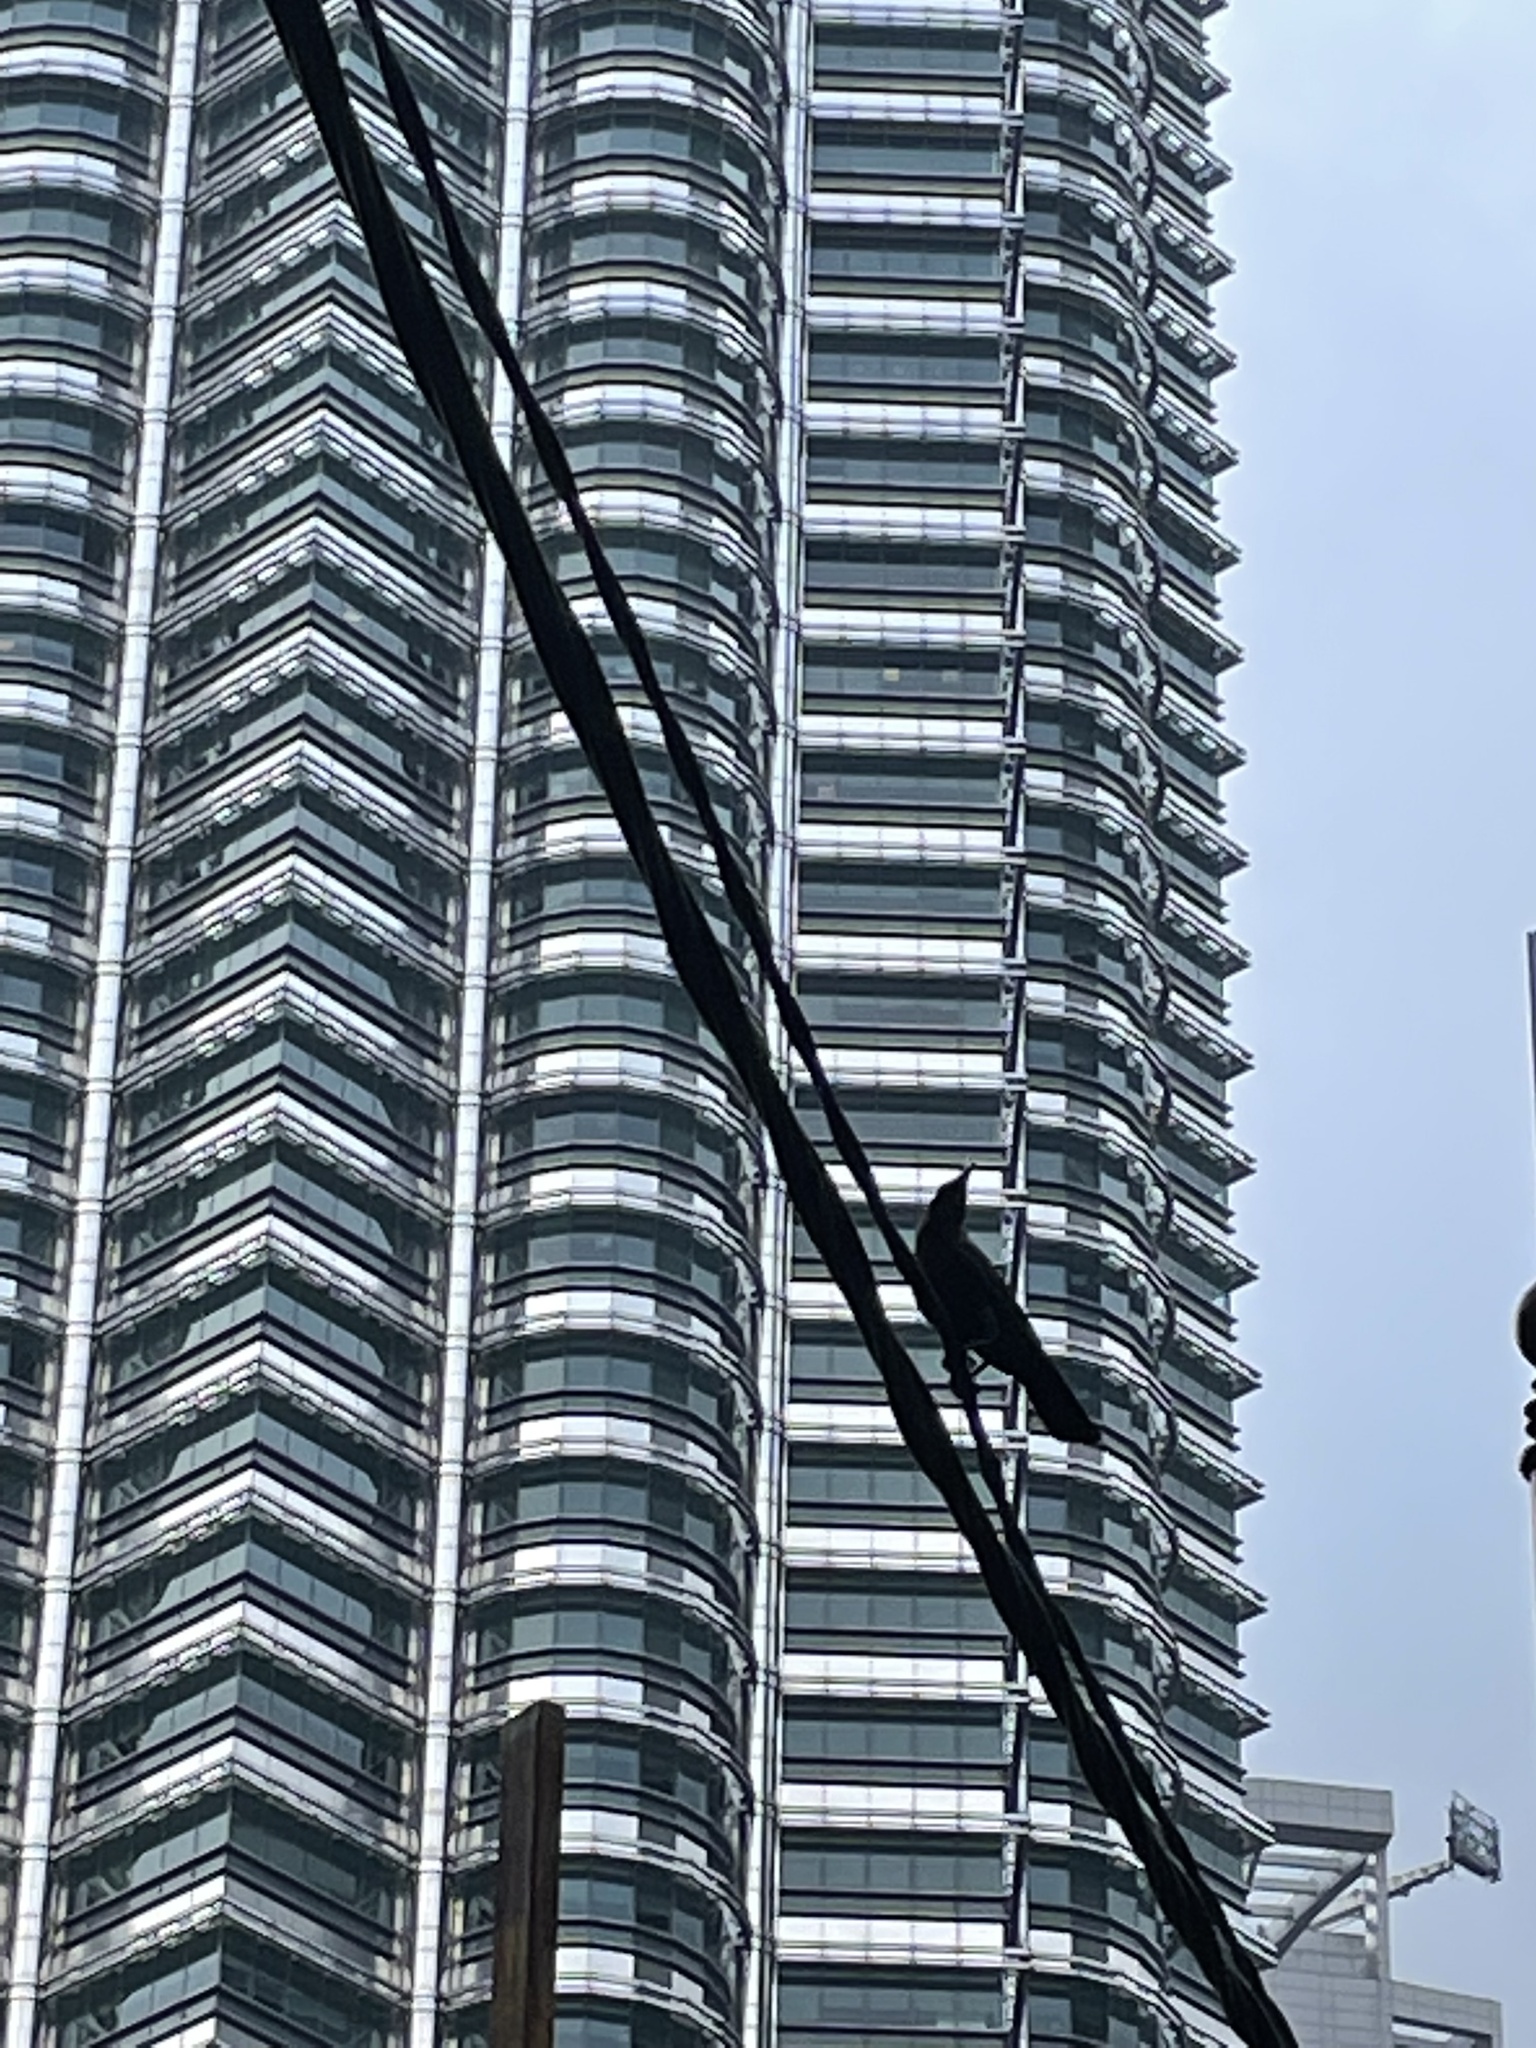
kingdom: Animalia
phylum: Chordata
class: Aves
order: Passeriformes
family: Corvidae
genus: Corvus
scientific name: Corvus splendens
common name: House crow
